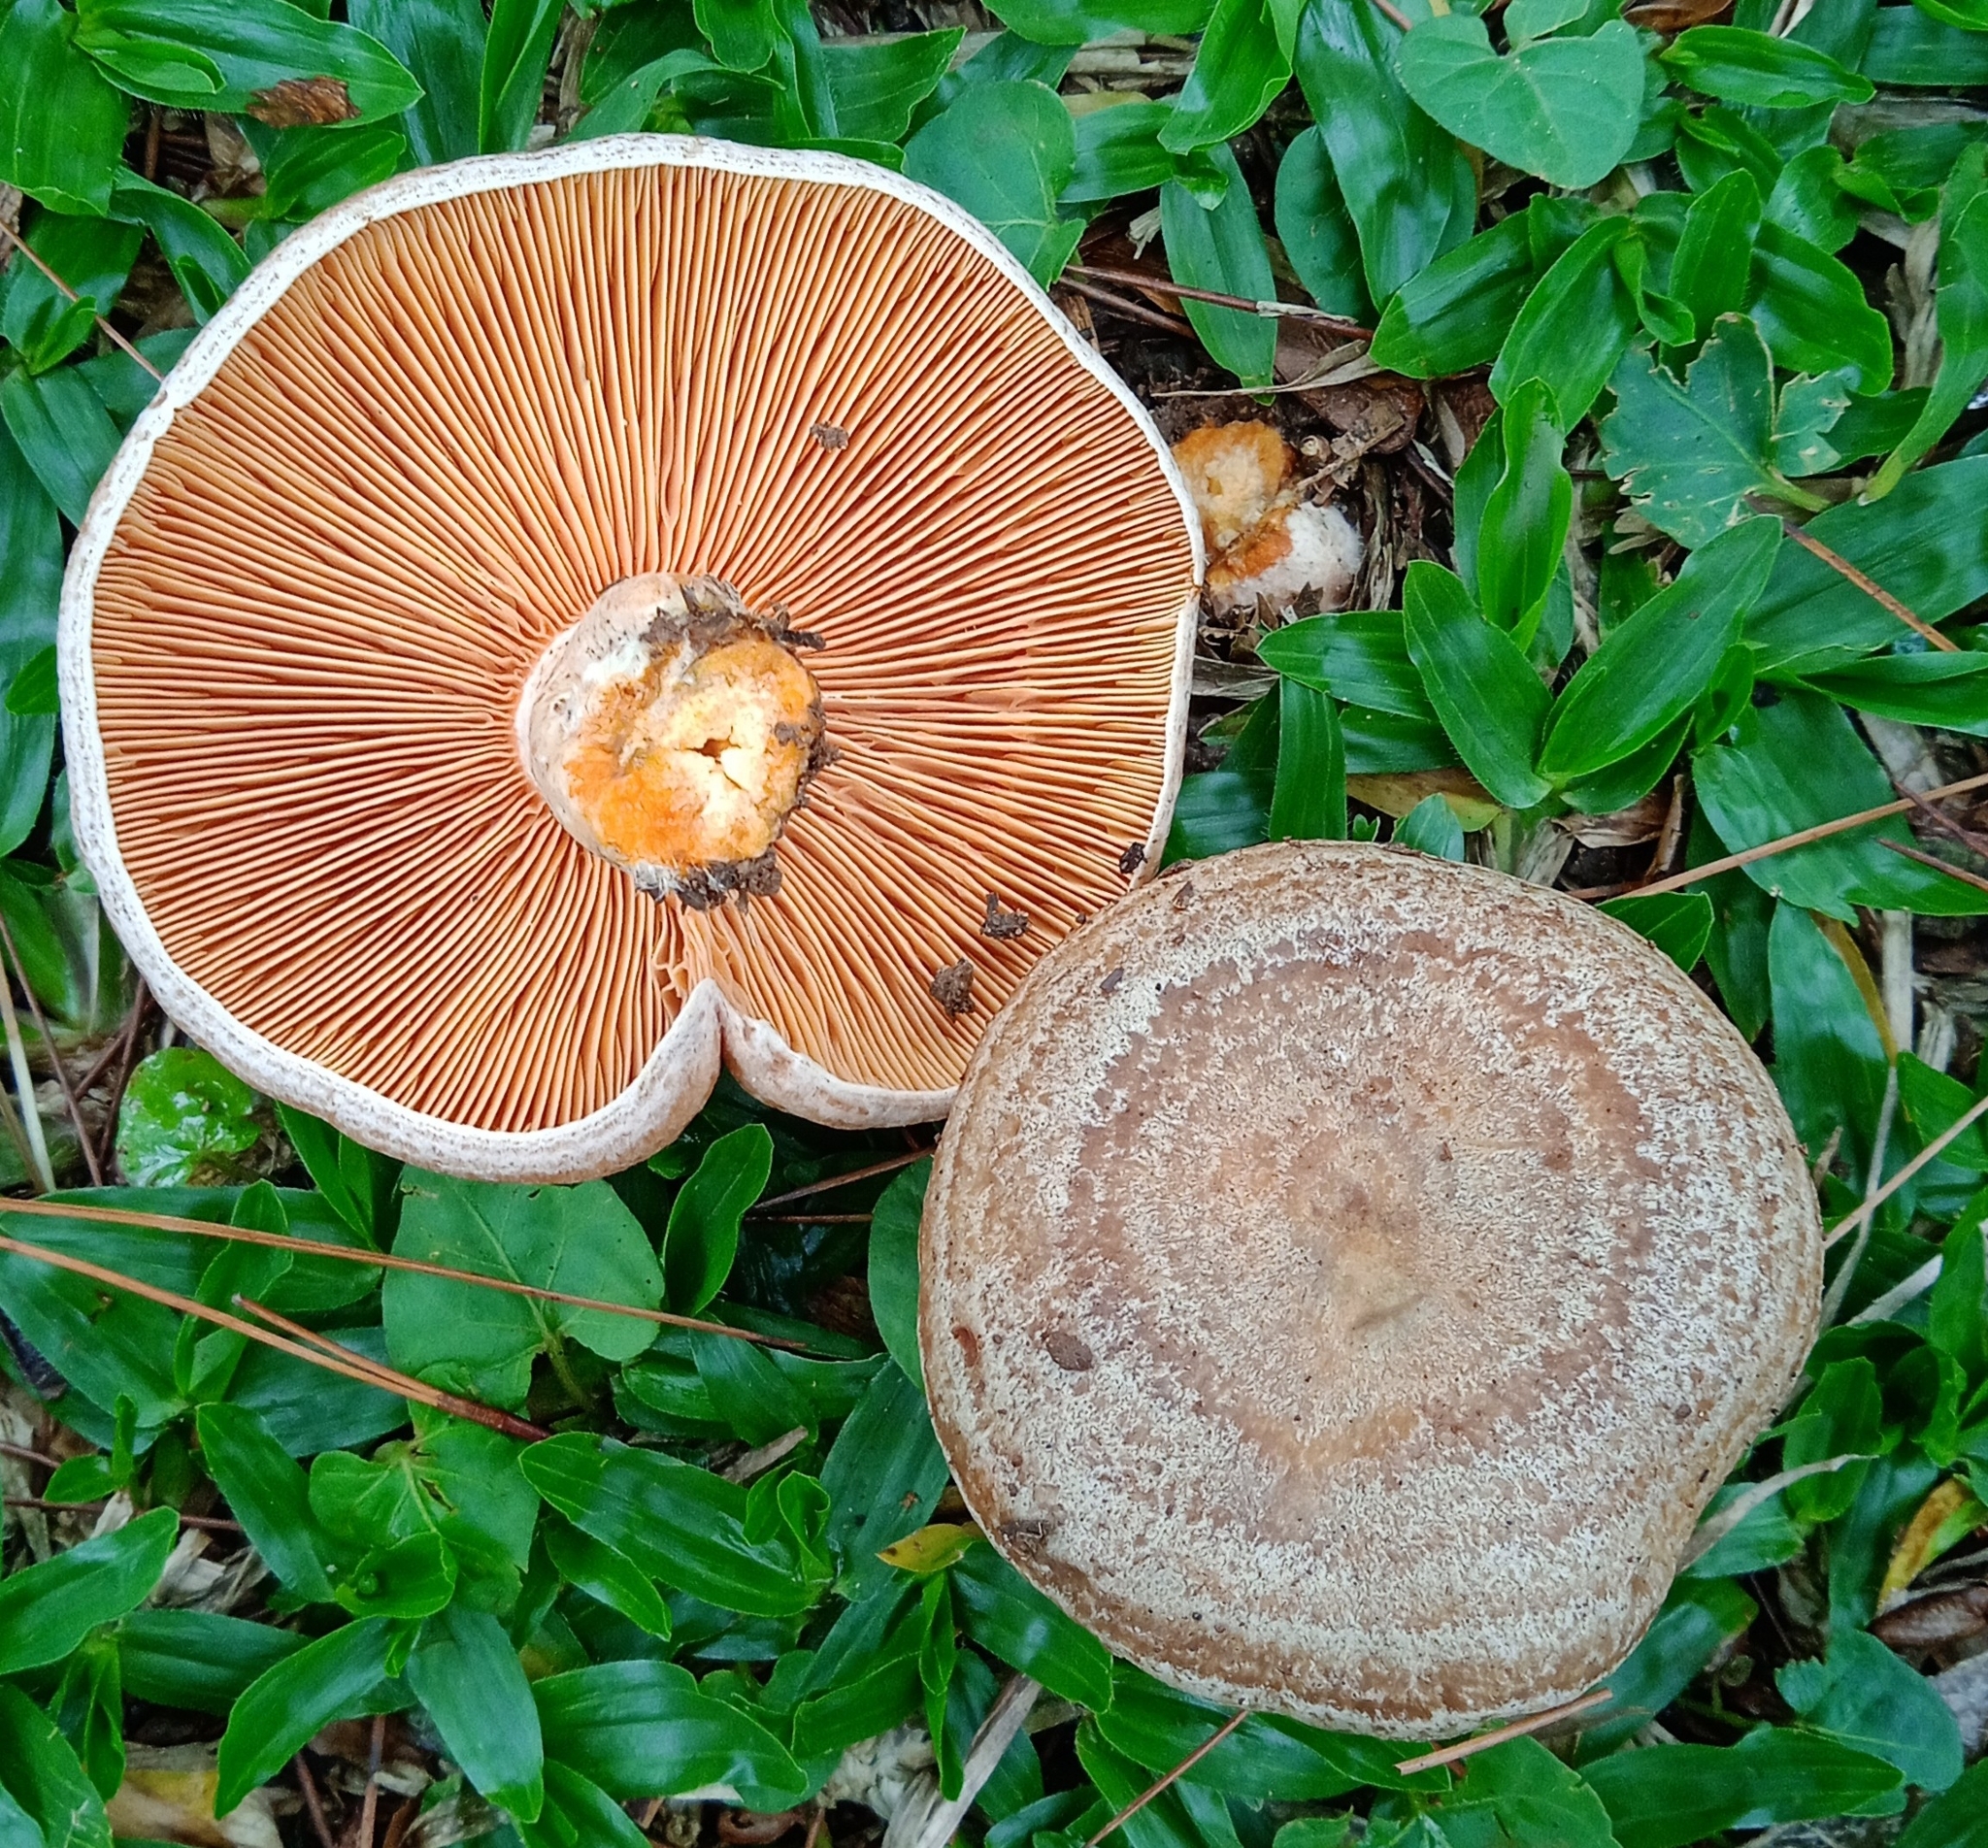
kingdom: Fungi
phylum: Basidiomycota
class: Agaricomycetes
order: Russulales
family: Russulaceae
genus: Lactarius
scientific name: Lactarius quieticolor
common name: Carrot milkcap
